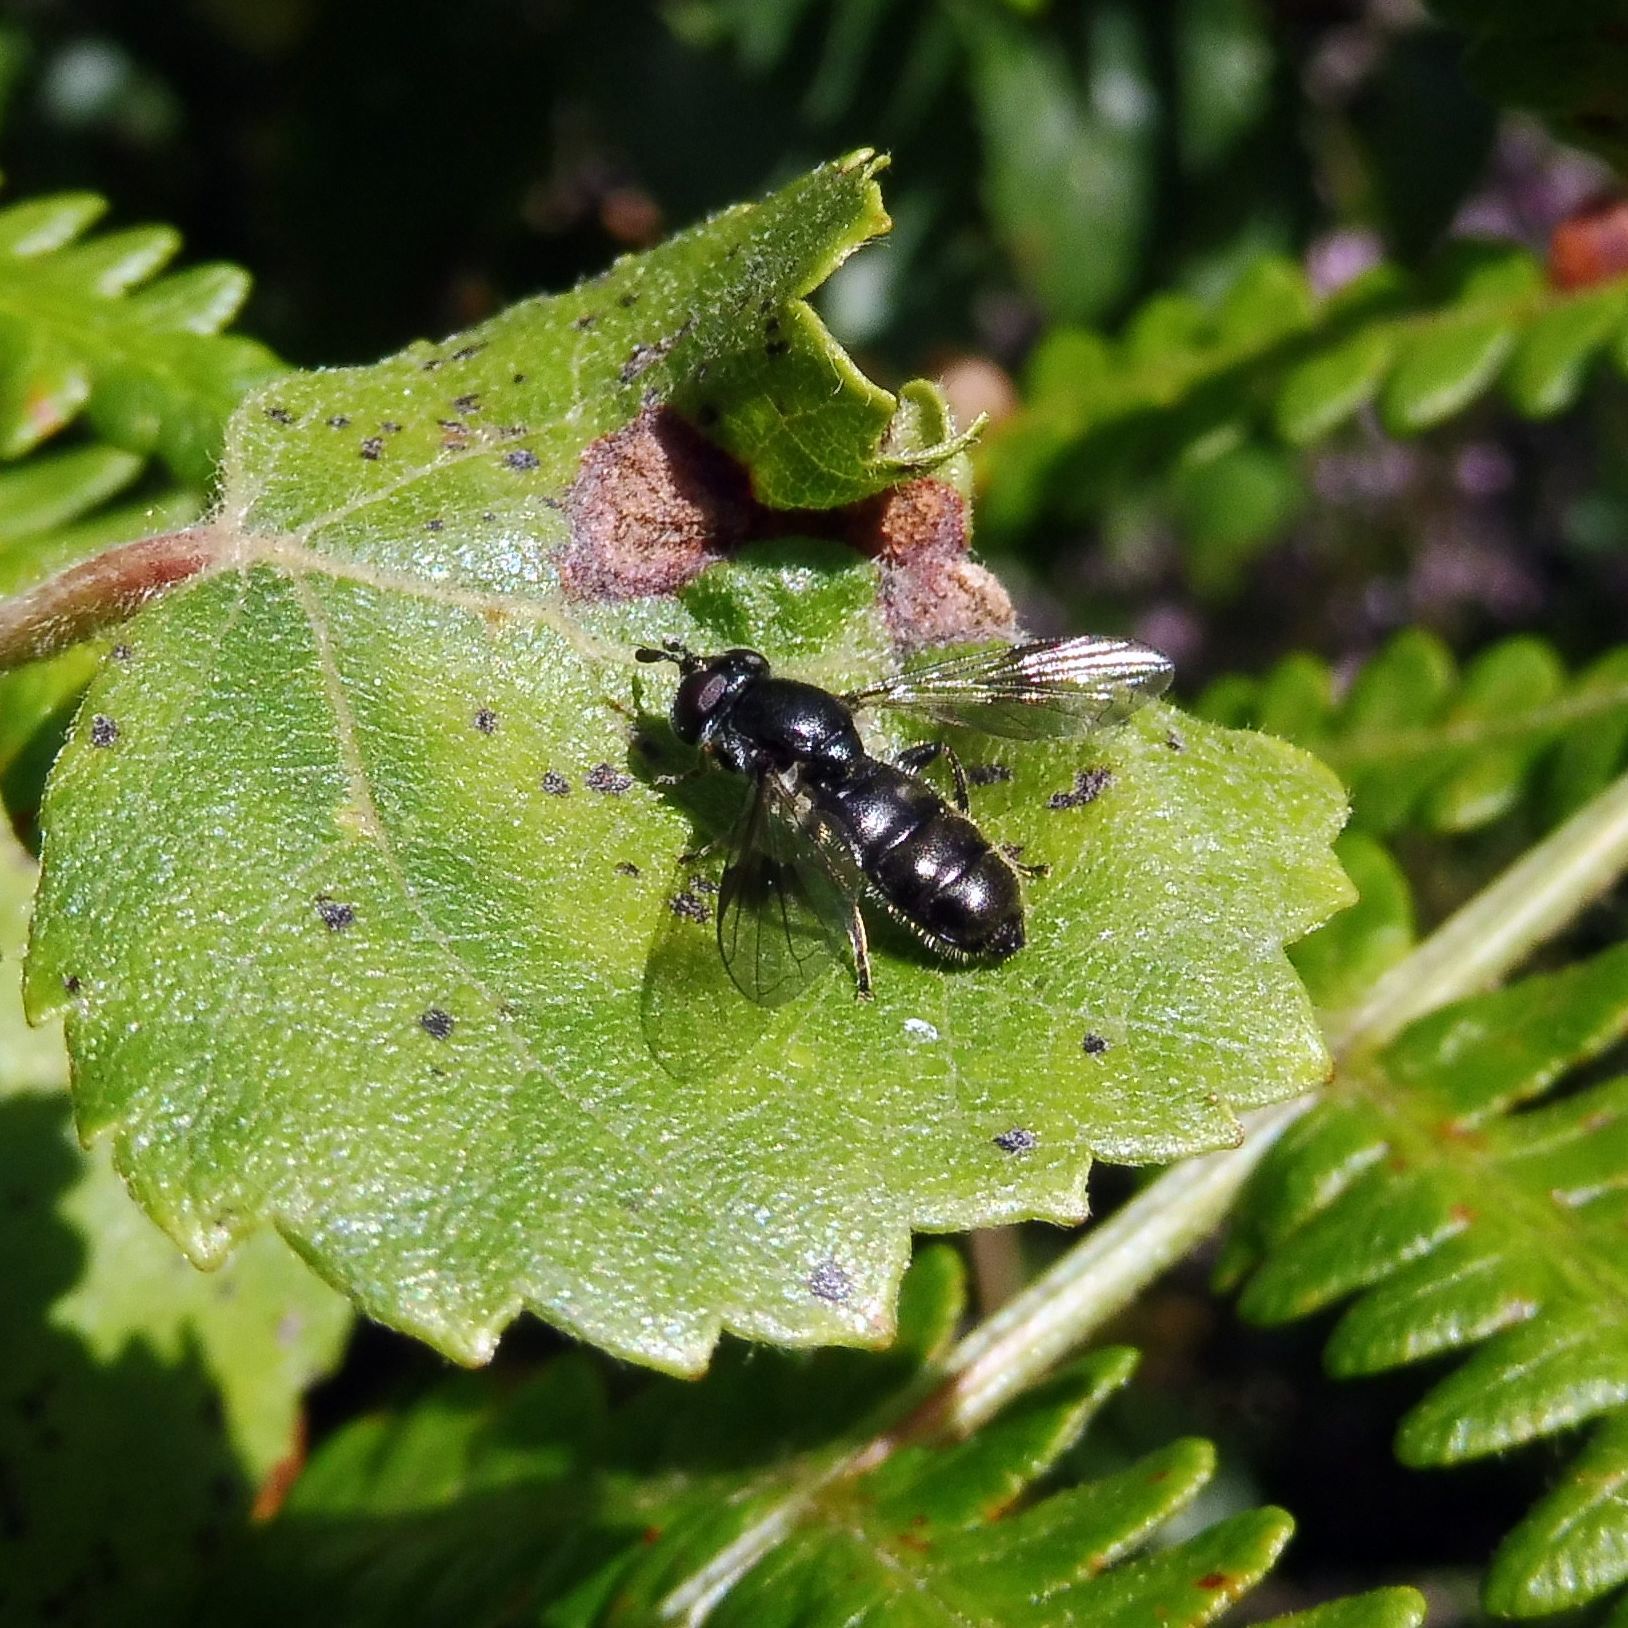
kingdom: Animalia
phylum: Arthropoda
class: Insecta
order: Diptera
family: Syrphidae
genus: Pipiza
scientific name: Pipiza
